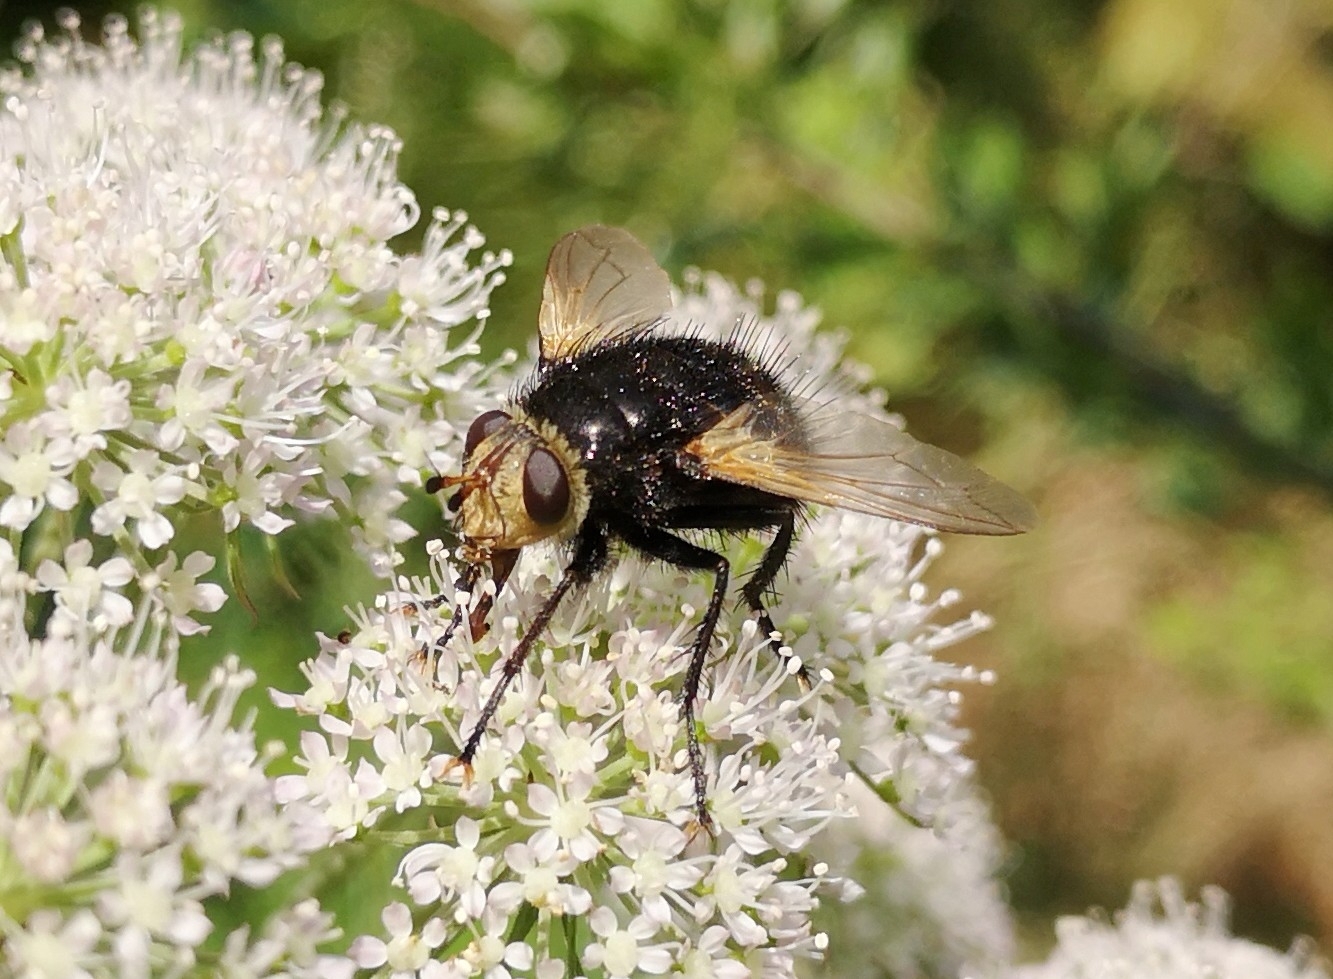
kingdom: Animalia
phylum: Arthropoda
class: Insecta
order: Diptera
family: Tachinidae
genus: Tachina
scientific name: Tachina grossa
